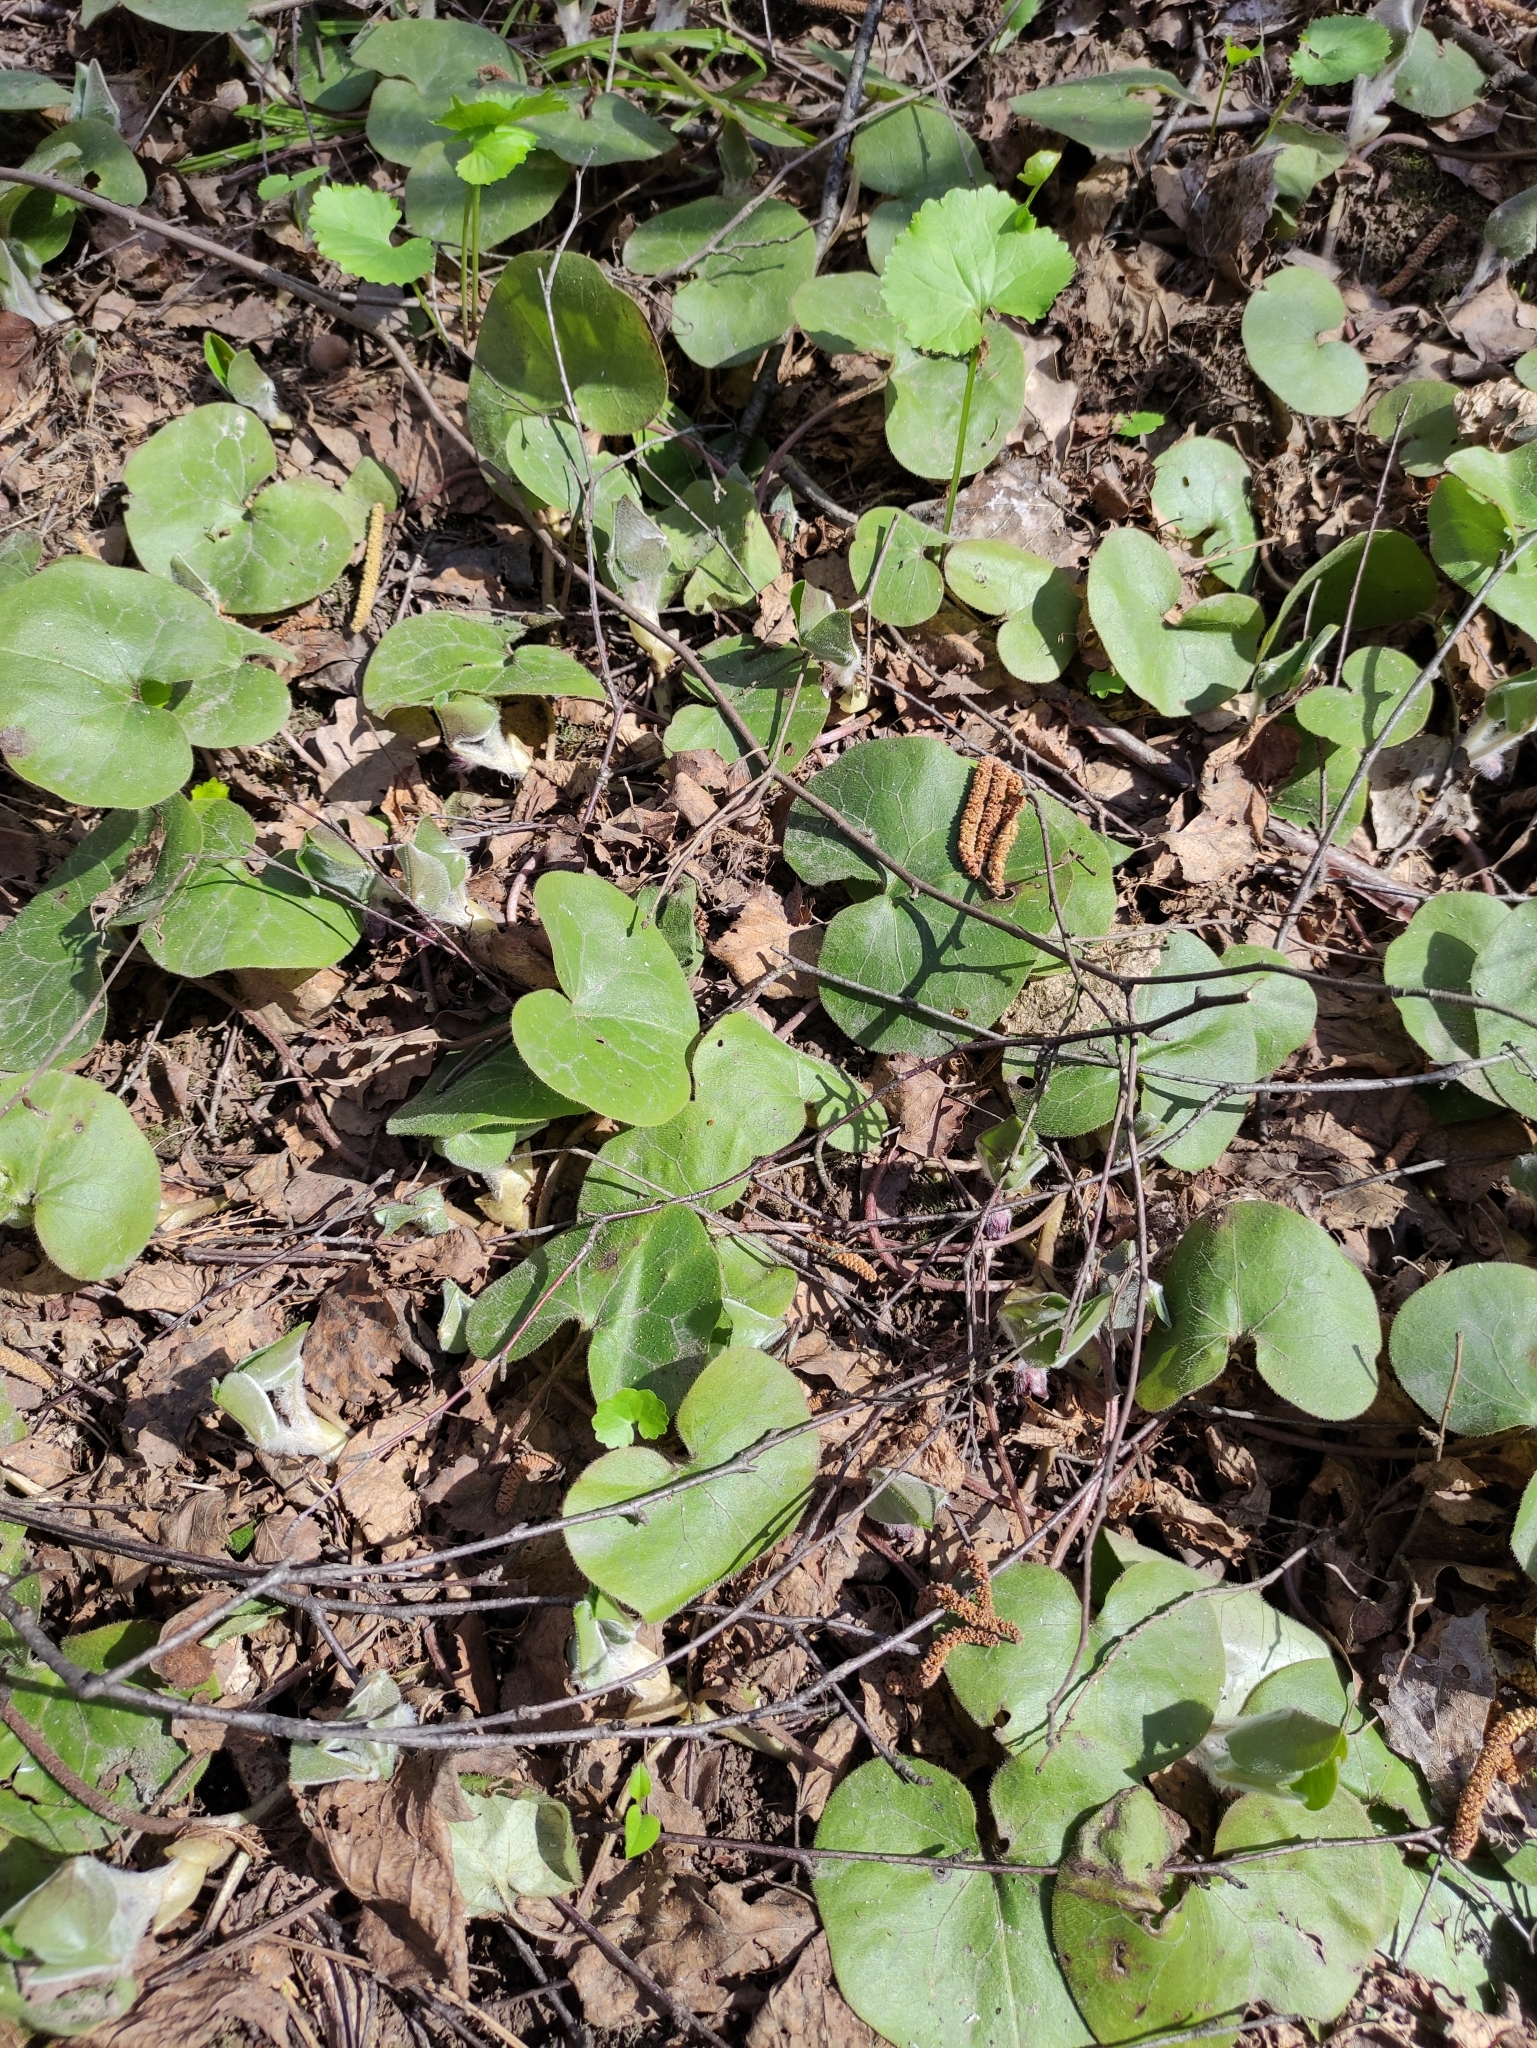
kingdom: Plantae
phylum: Tracheophyta
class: Magnoliopsida
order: Piperales
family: Aristolochiaceae
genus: Asarum
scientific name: Asarum europaeum
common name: Asarabacca
